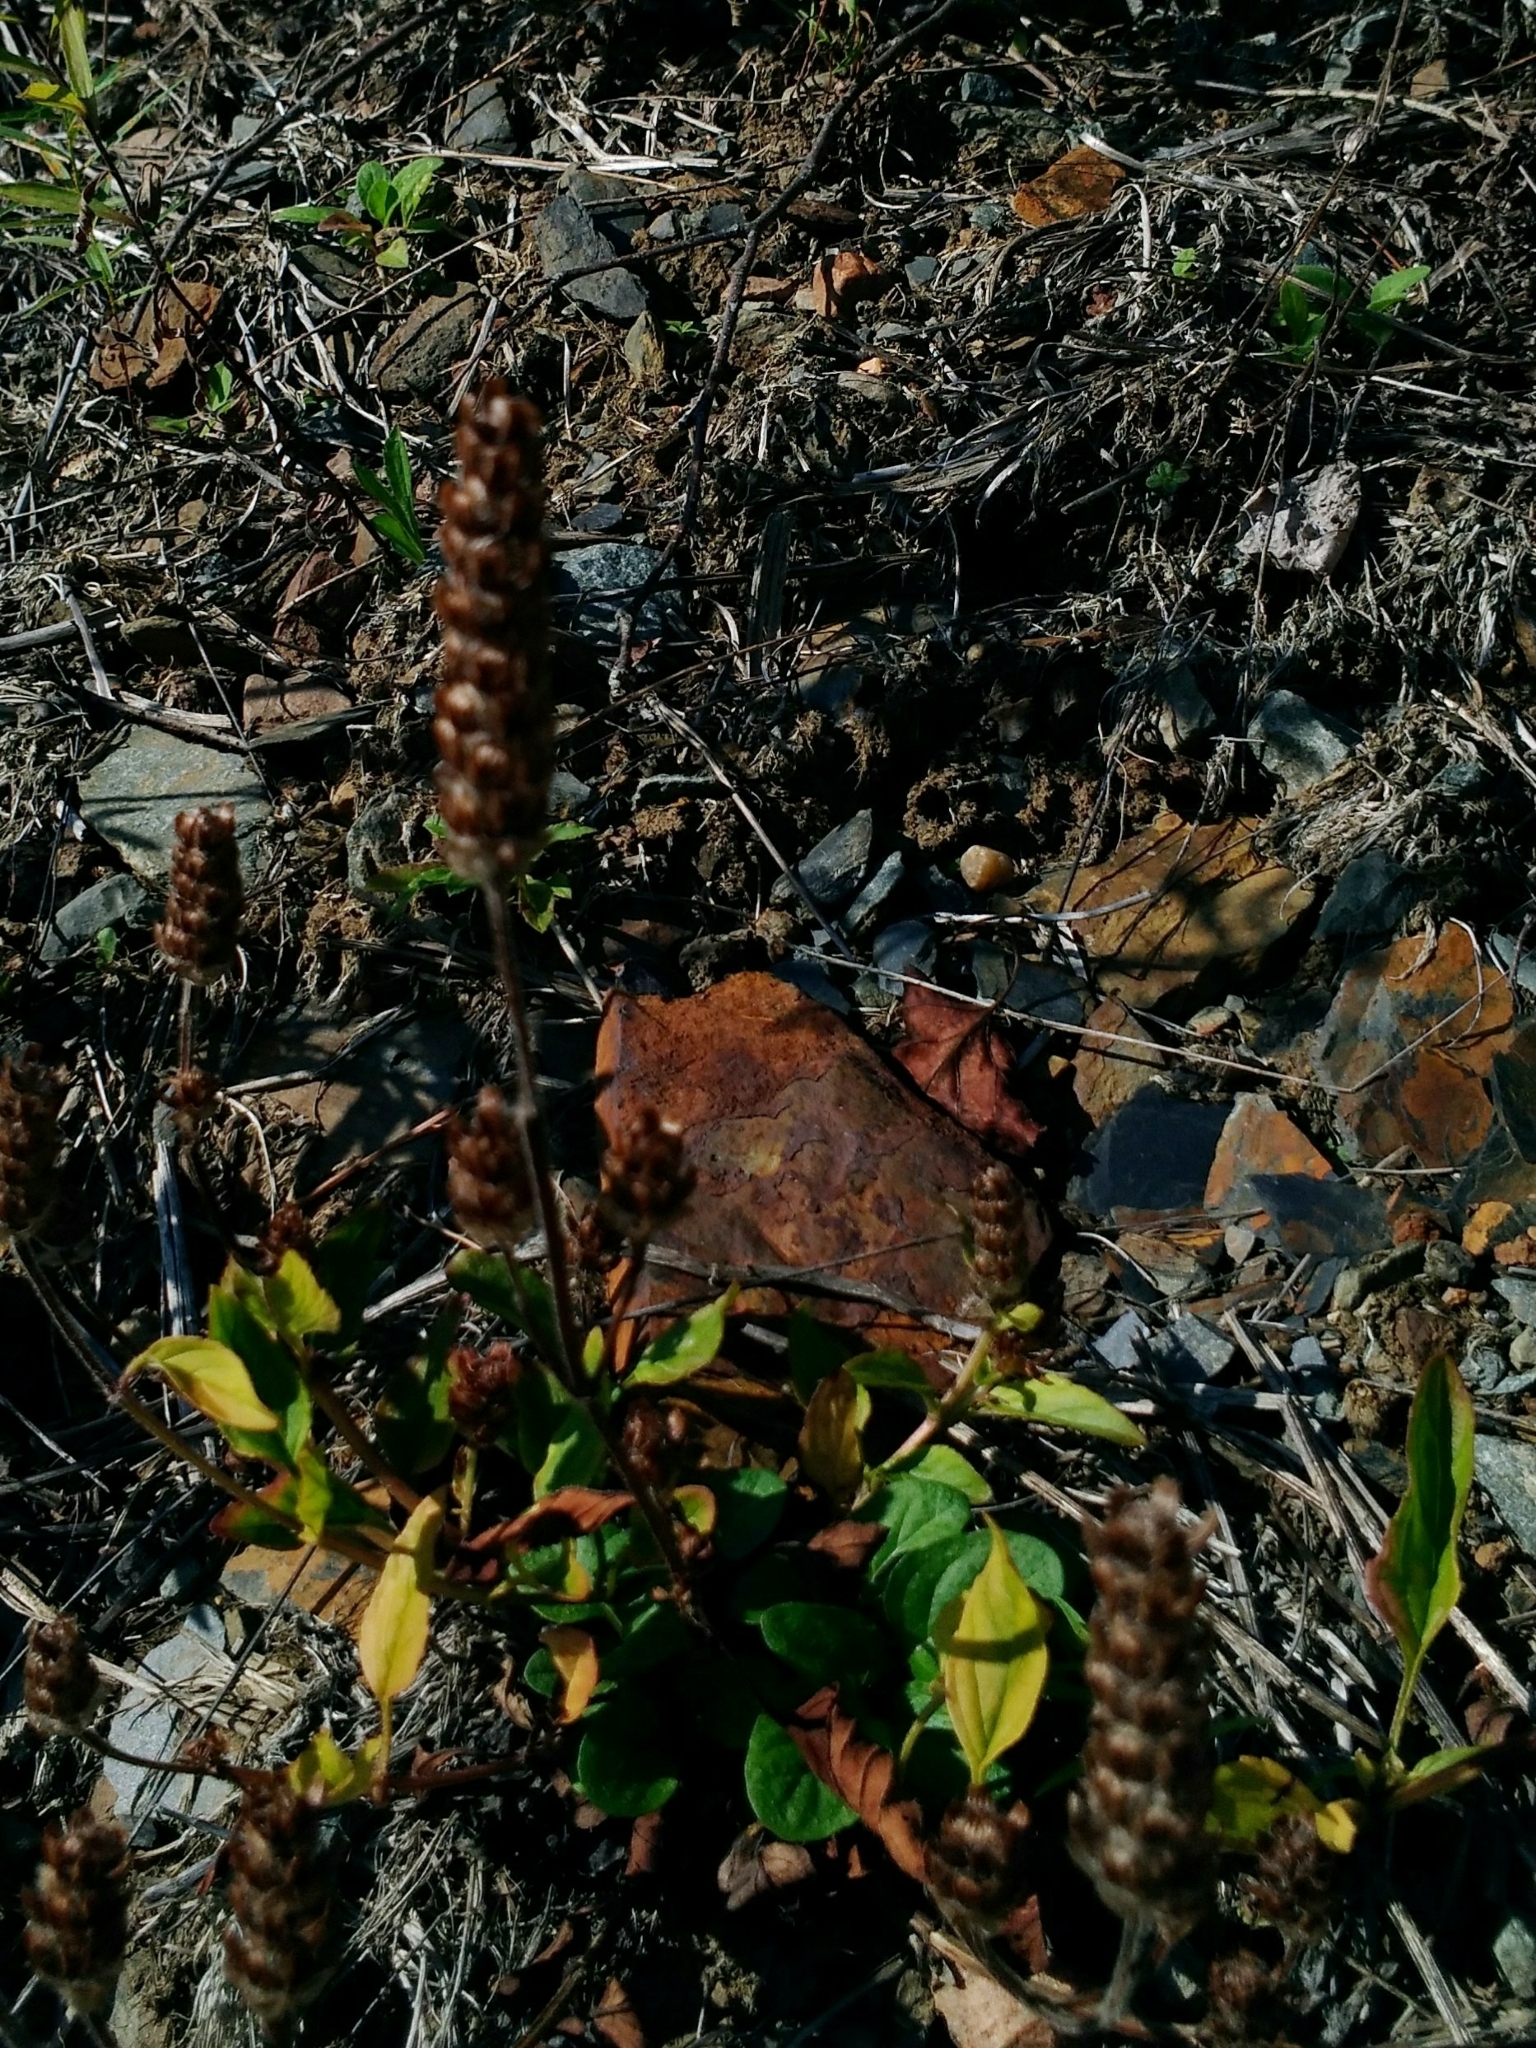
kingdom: Plantae
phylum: Tracheophyta
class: Magnoliopsida
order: Lamiales
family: Lamiaceae
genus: Prunella
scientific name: Prunella vulgaris
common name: Heal-all
